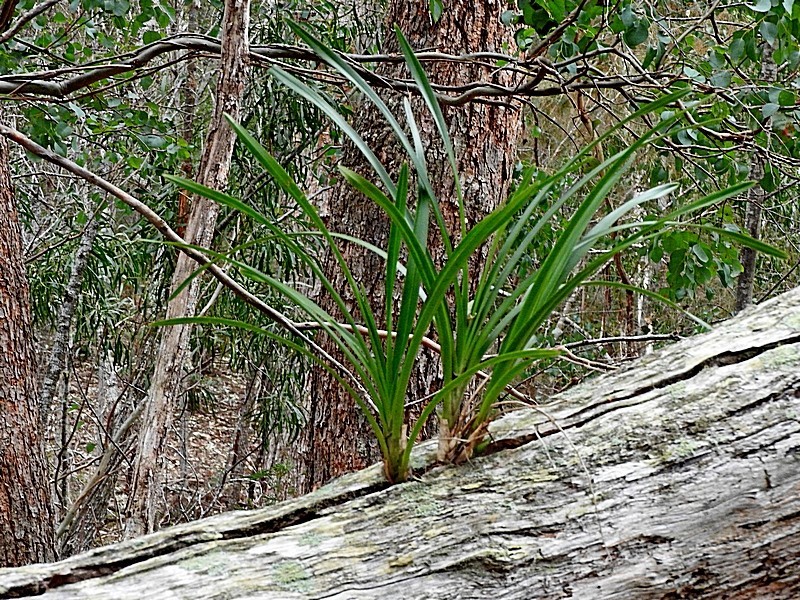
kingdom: Plantae
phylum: Tracheophyta
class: Liliopsida
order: Asparagales
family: Orchidaceae
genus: Cymbidium
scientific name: Cymbidium suave
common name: Snake orchid
